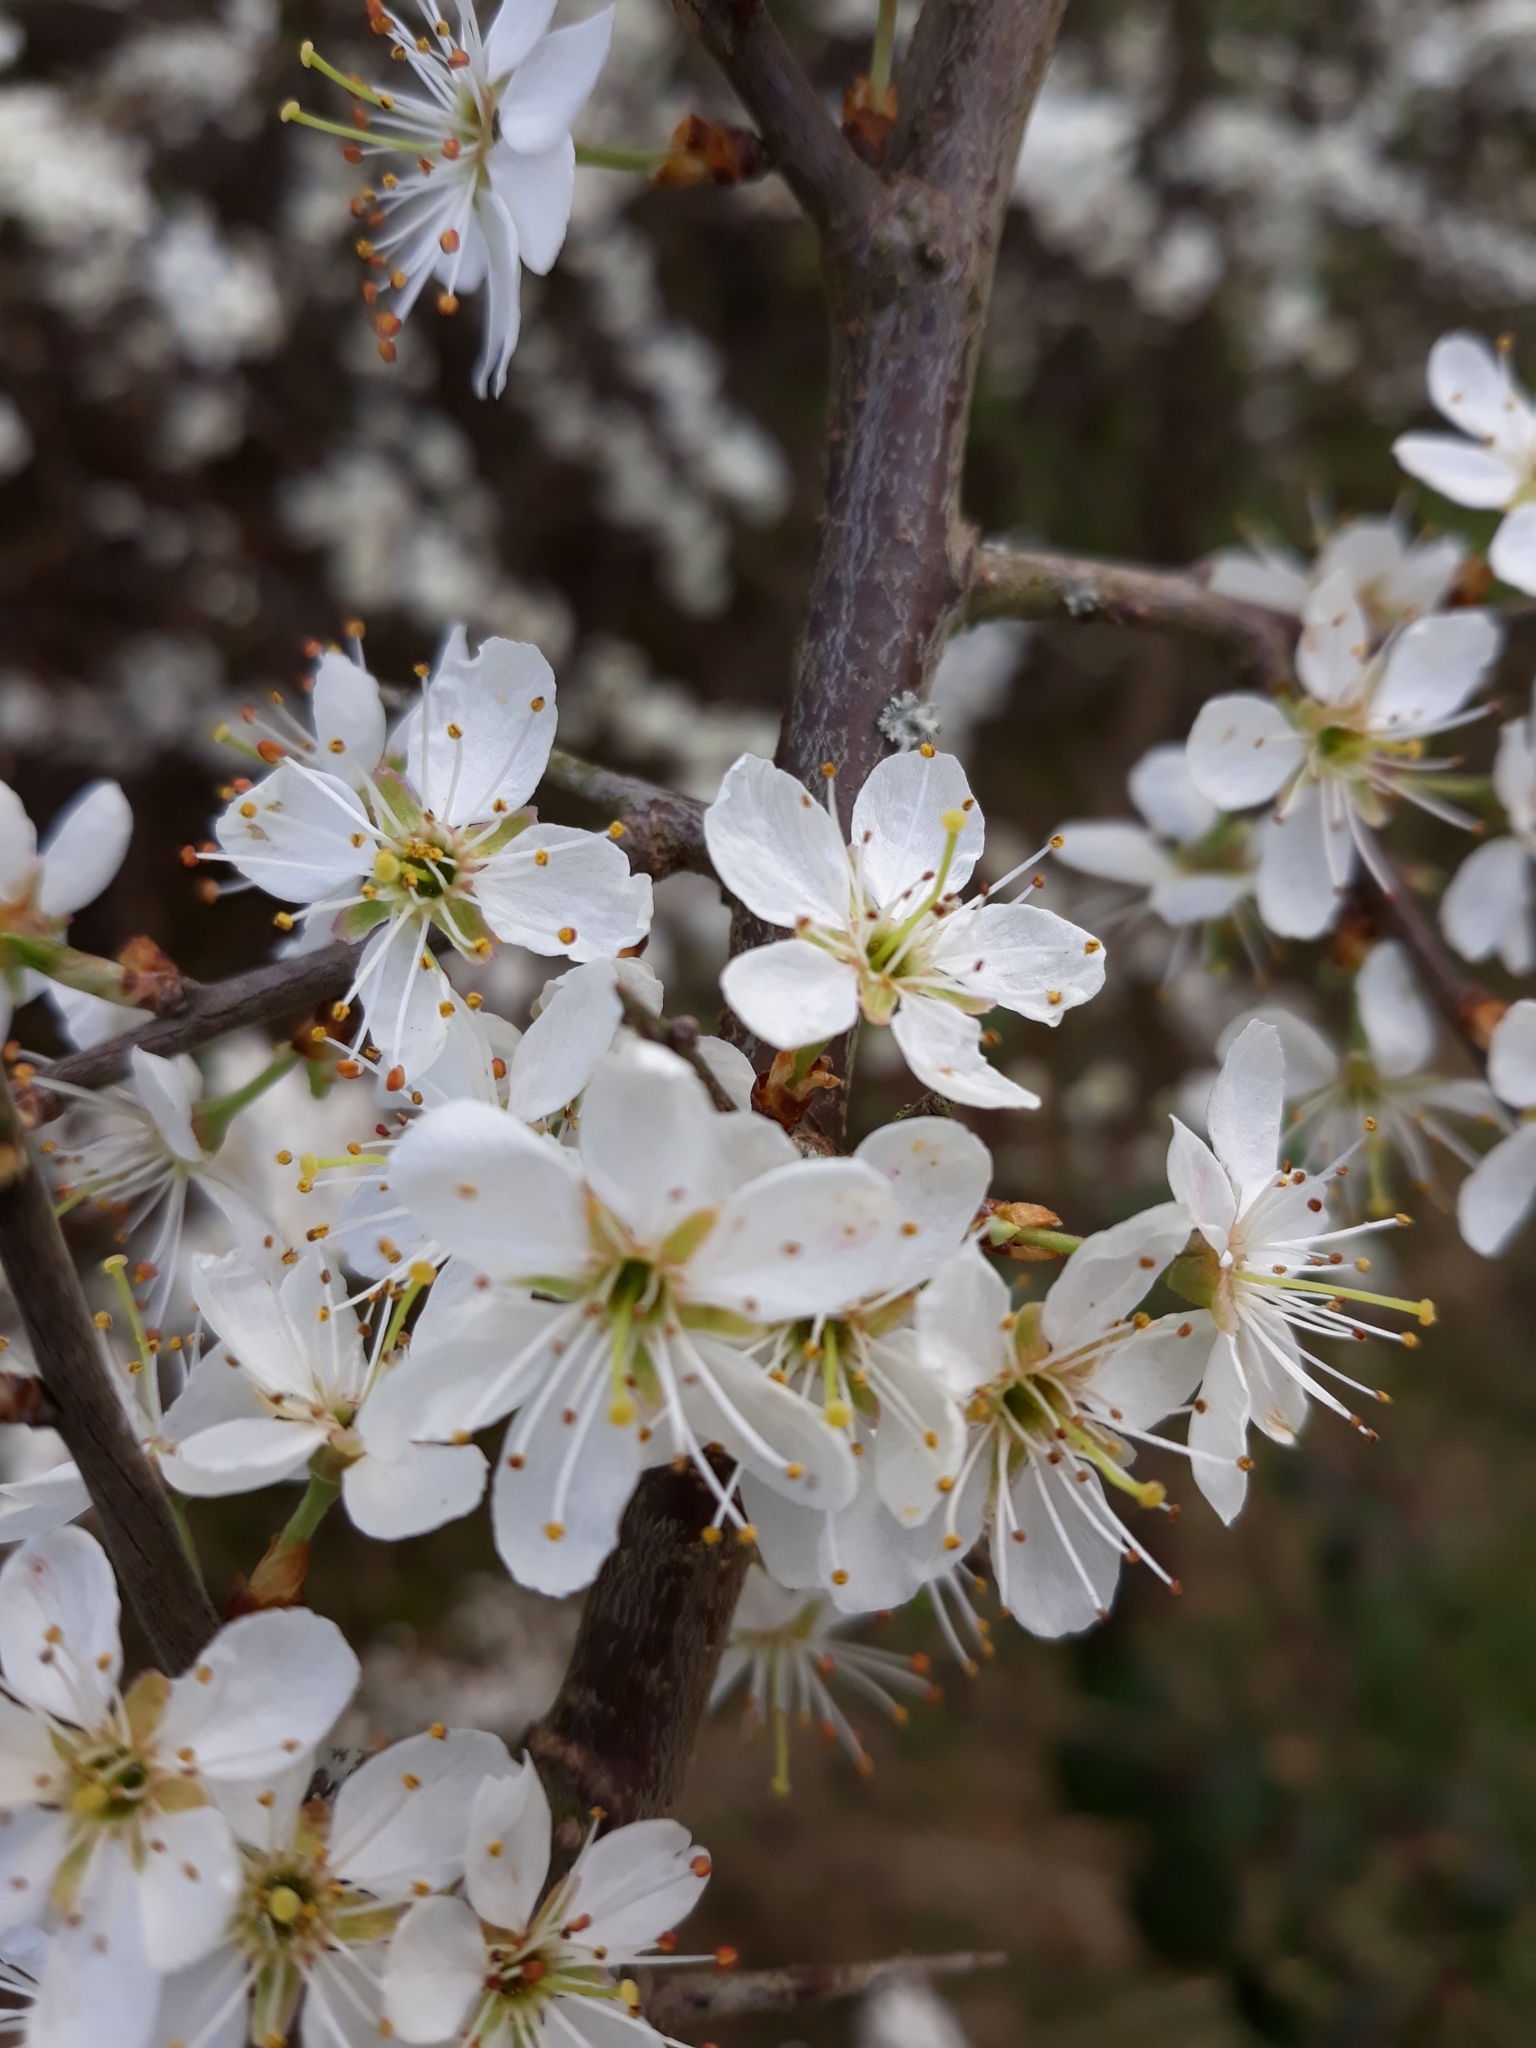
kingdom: Plantae
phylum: Tracheophyta
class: Magnoliopsida
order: Rosales
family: Rosaceae
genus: Prunus
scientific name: Prunus spinosa
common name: Blackthorn
